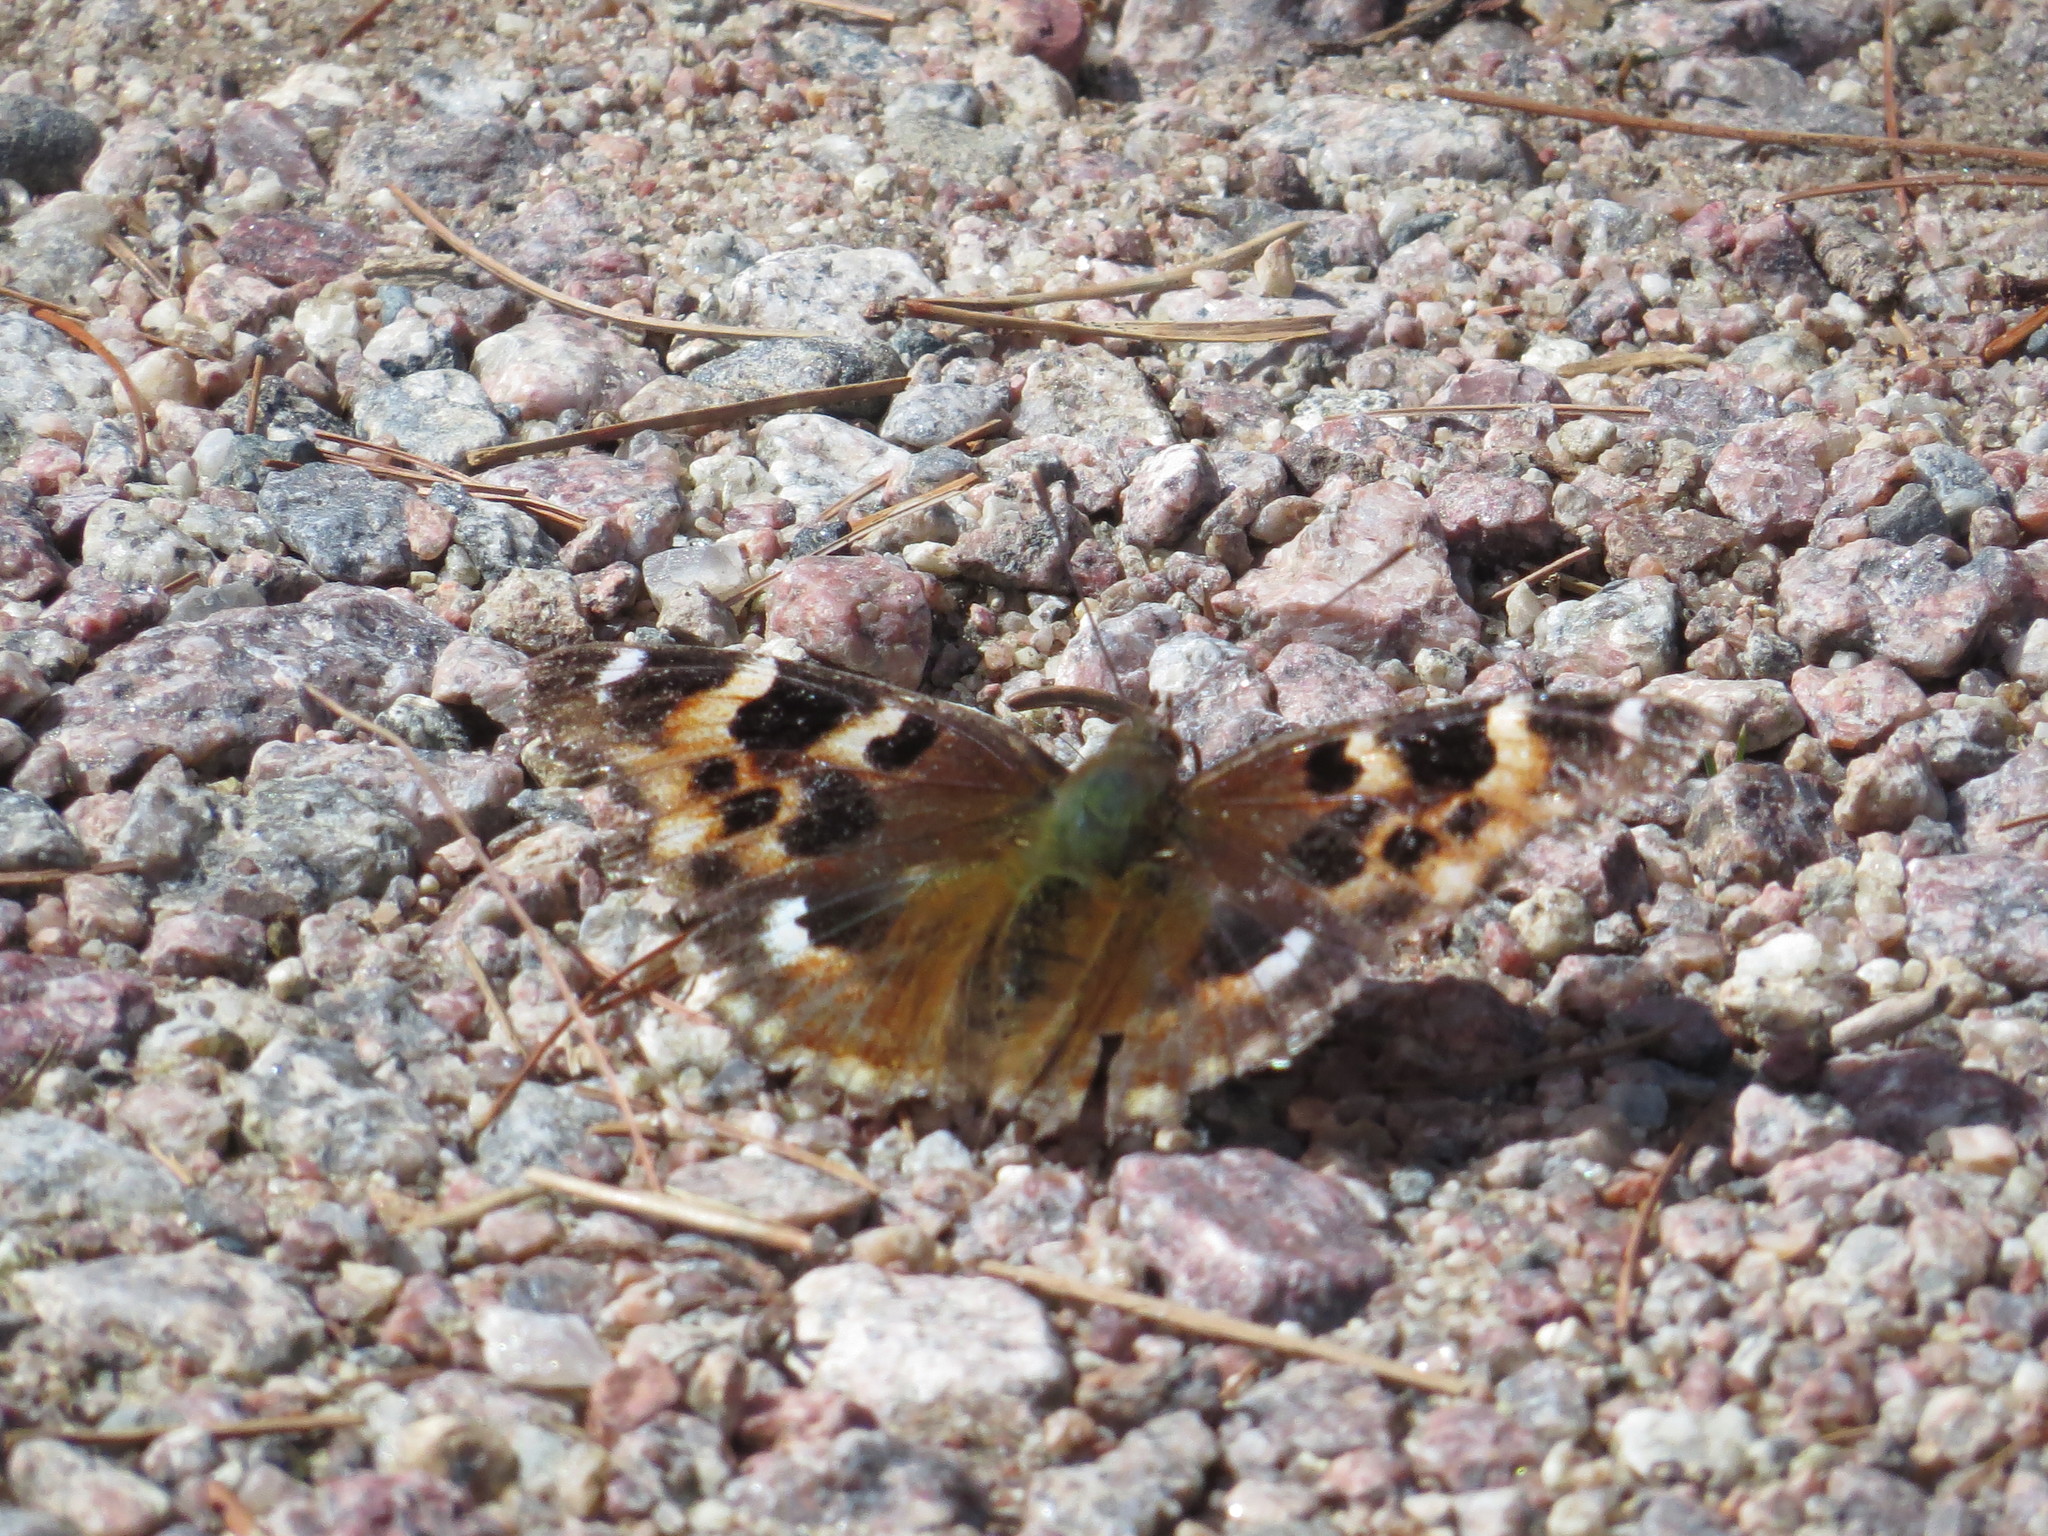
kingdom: Animalia
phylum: Arthropoda
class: Insecta
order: Lepidoptera
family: Nymphalidae
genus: Polygonia
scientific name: Polygonia vaualbum
